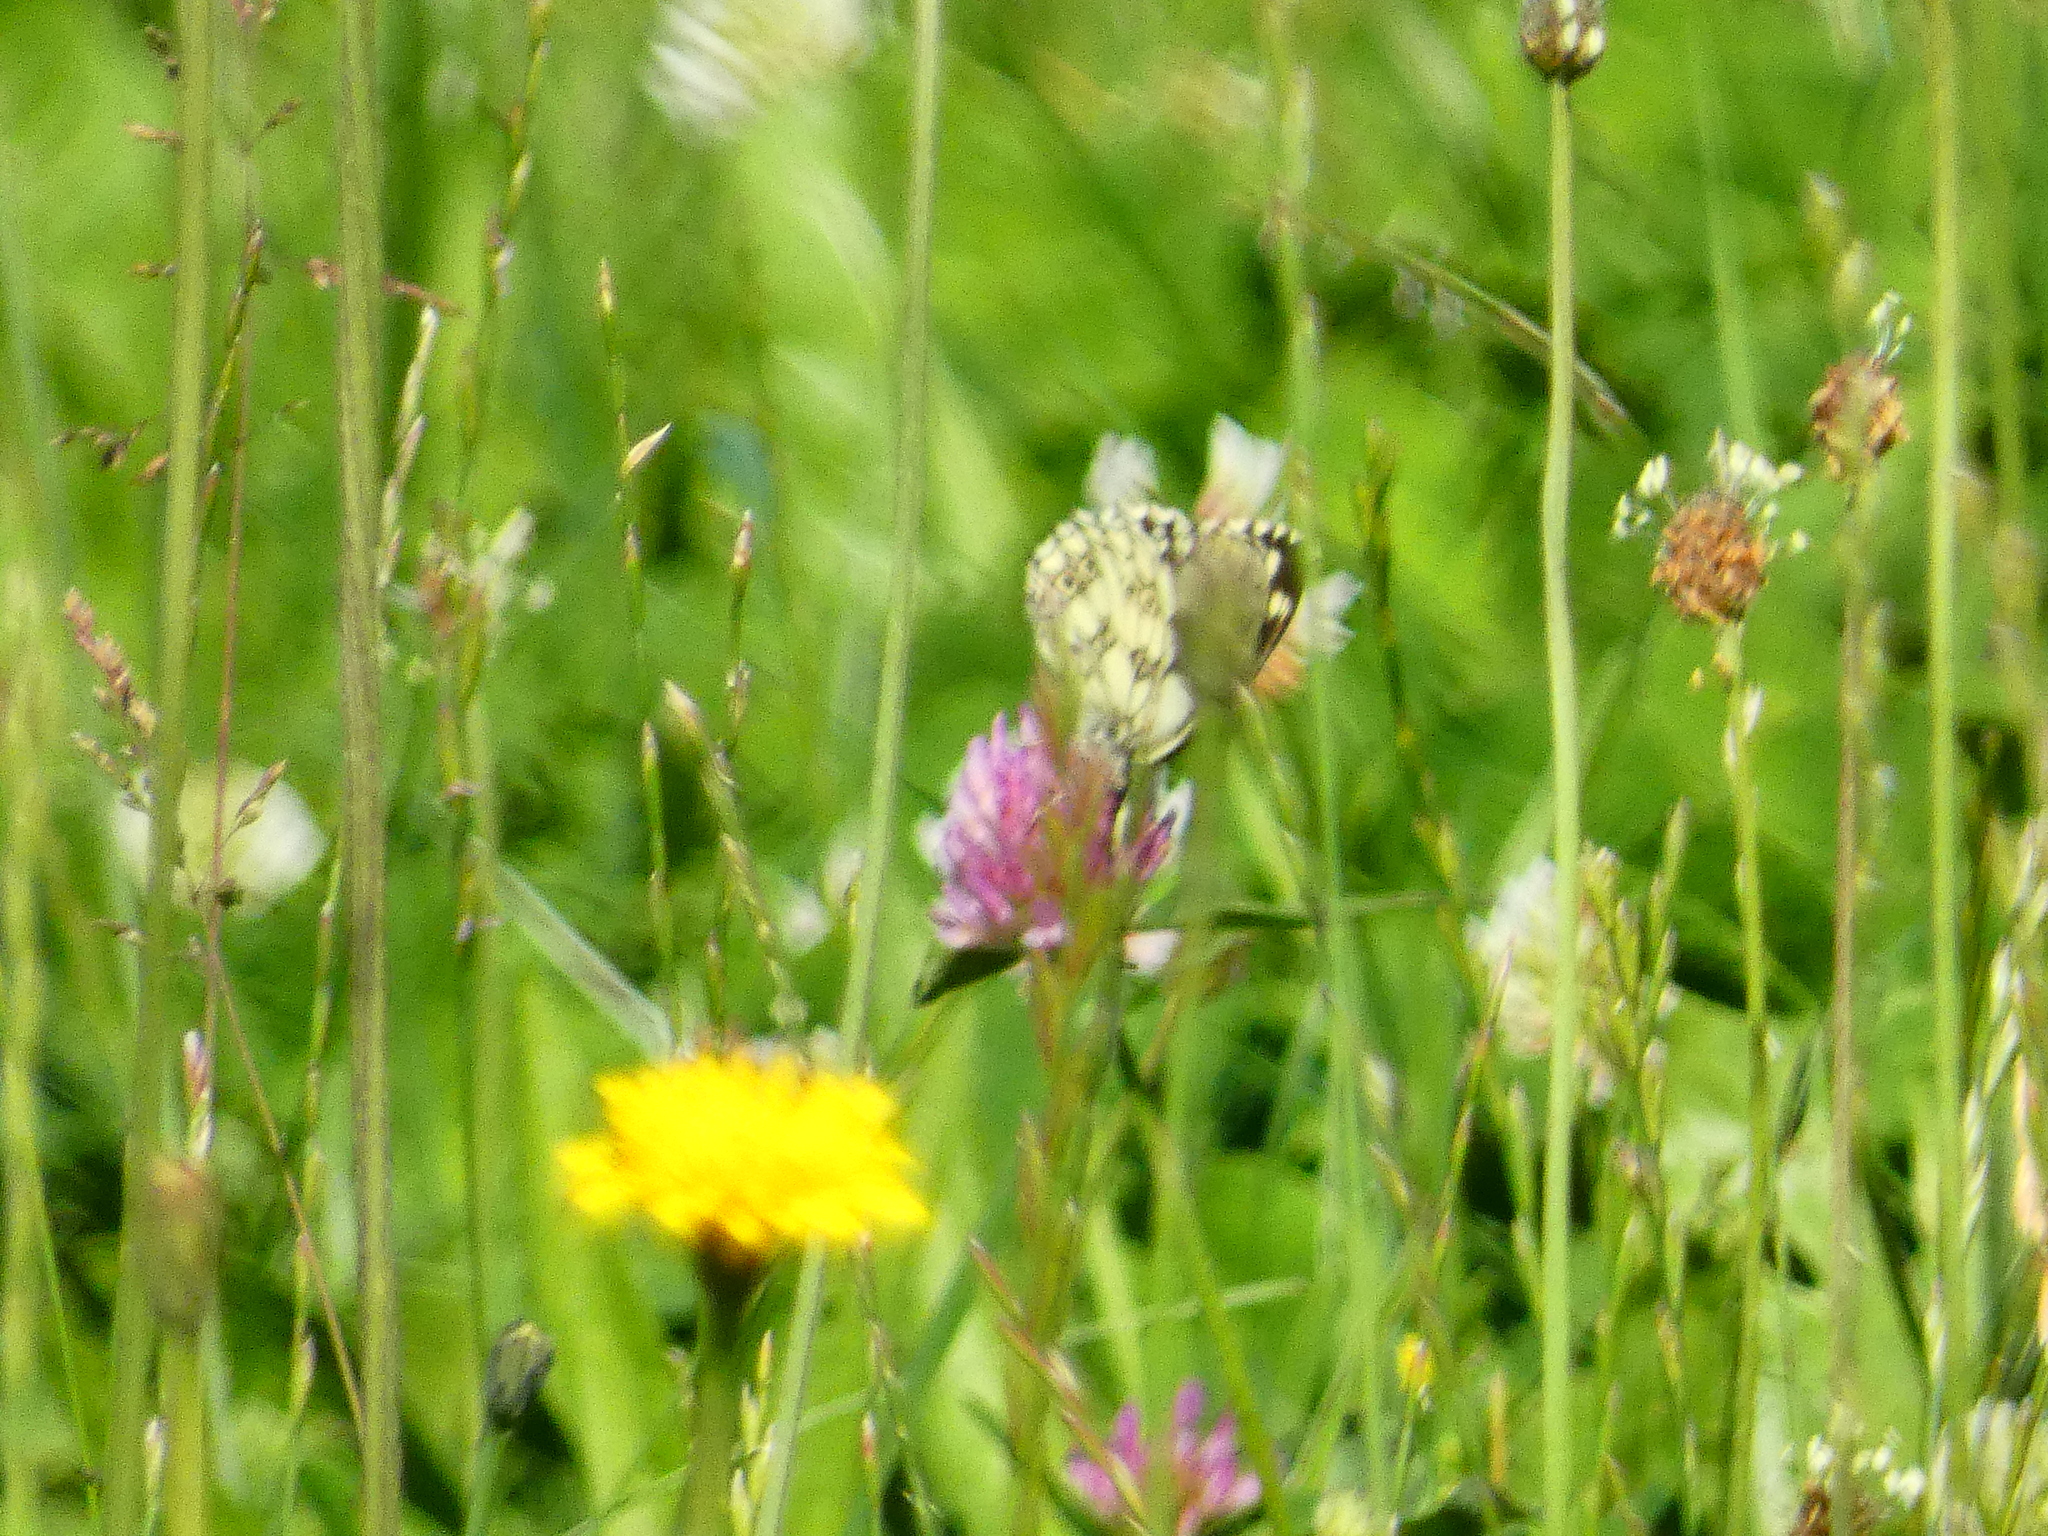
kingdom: Animalia
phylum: Arthropoda
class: Insecta
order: Lepidoptera
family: Nymphalidae
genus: Melanargia
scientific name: Melanargia galathea
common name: Marbled white
